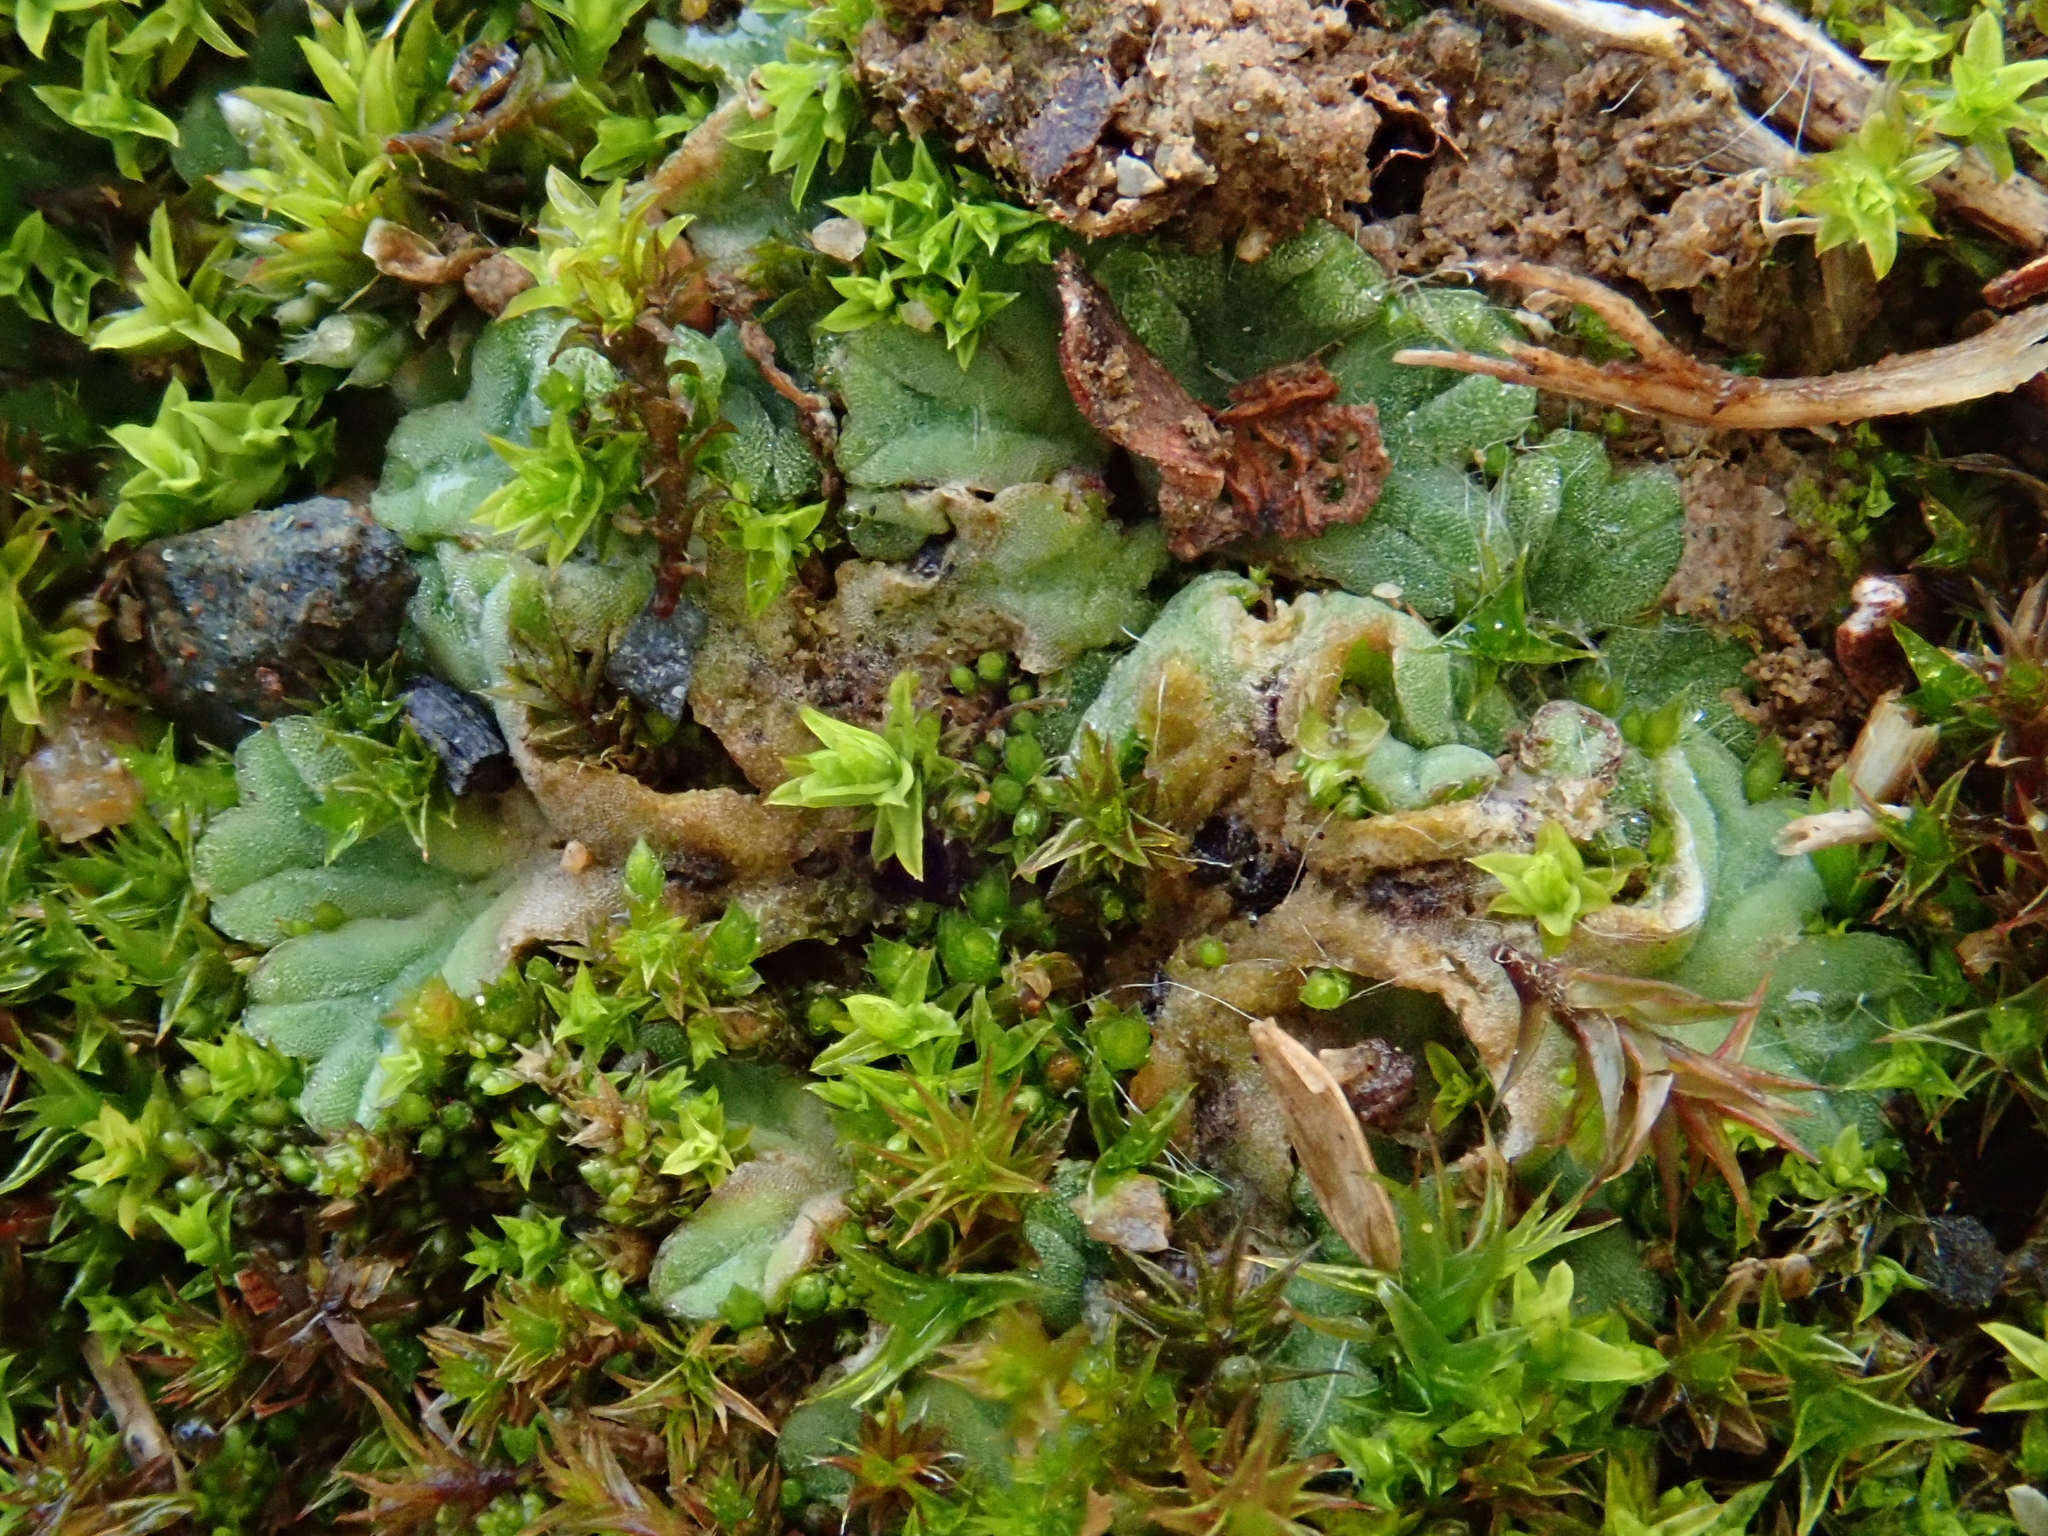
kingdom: Plantae
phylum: Marchantiophyta
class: Marchantiopsida
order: Marchantiales
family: Ricciaceae
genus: Riccia
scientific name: Riccia sorocarpa
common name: Common crystalwort
